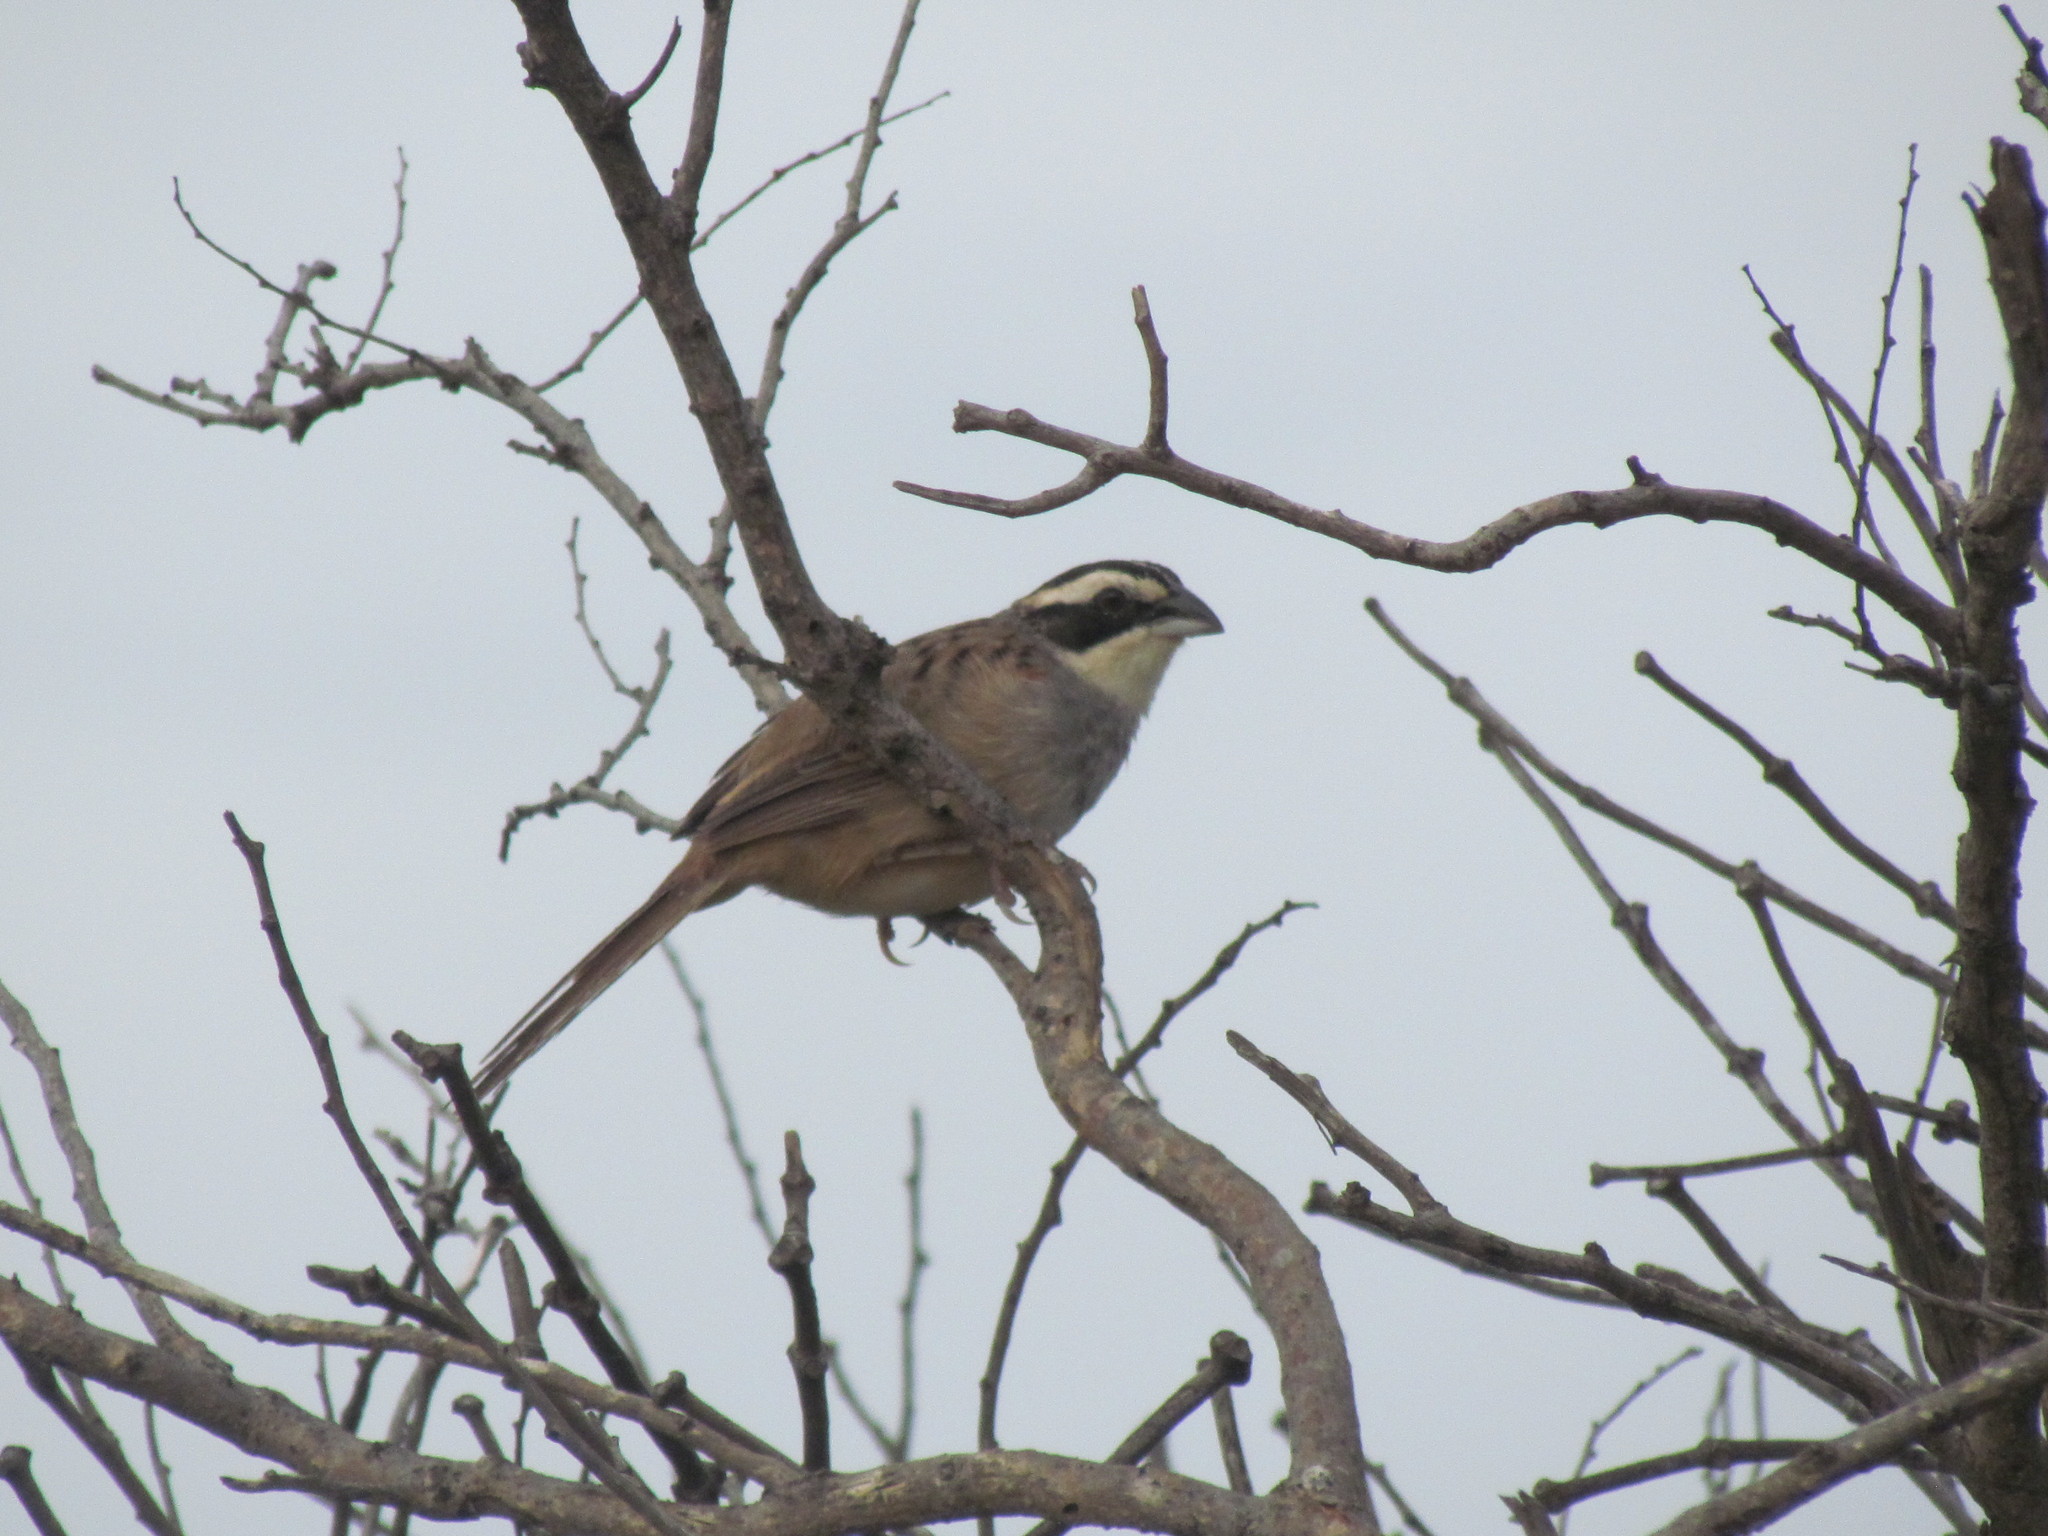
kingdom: Animalia
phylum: Chordata
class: Aves
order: Passeriformes
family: Passerellidae
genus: Peucaea
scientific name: Peucaea ruficauda
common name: Stripe-headed sparrow
